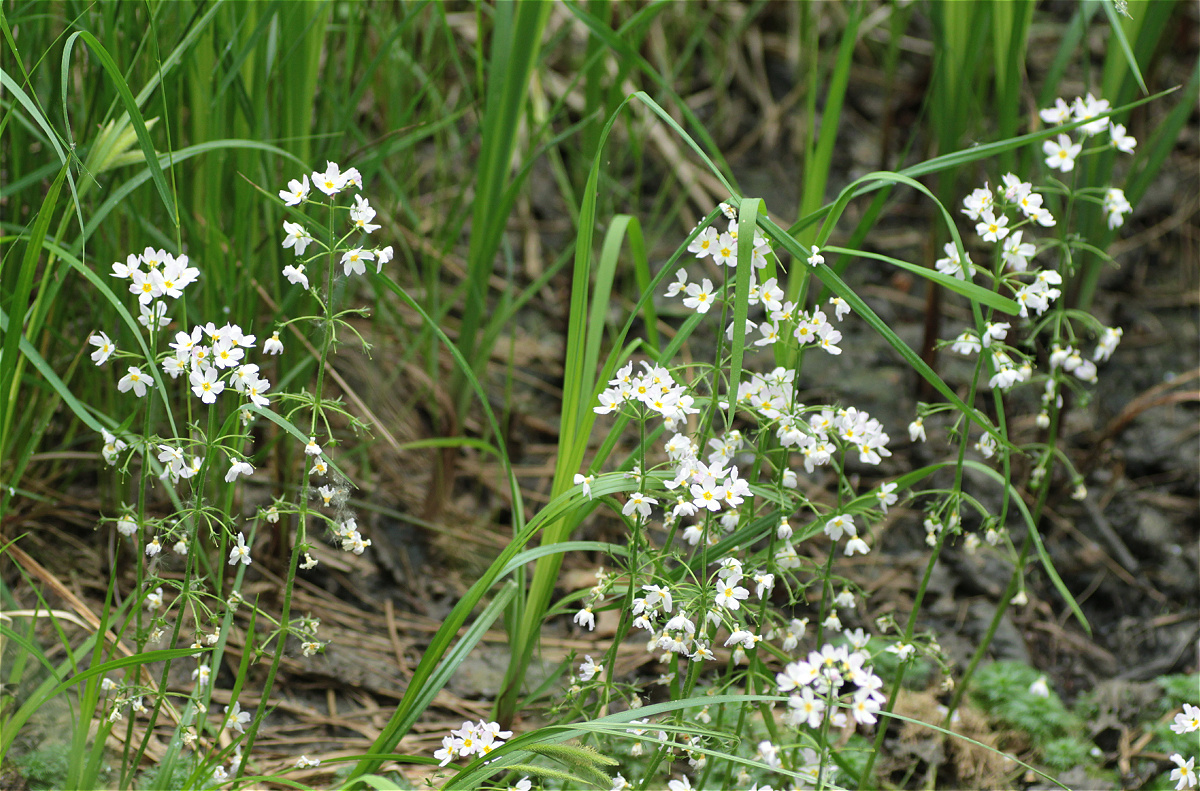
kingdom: Plantae
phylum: Tracheophyta
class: Magnoliopsida
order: Ericales
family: Primulaceae
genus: Hottonia
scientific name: Hottonia palustris
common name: Water-violet
